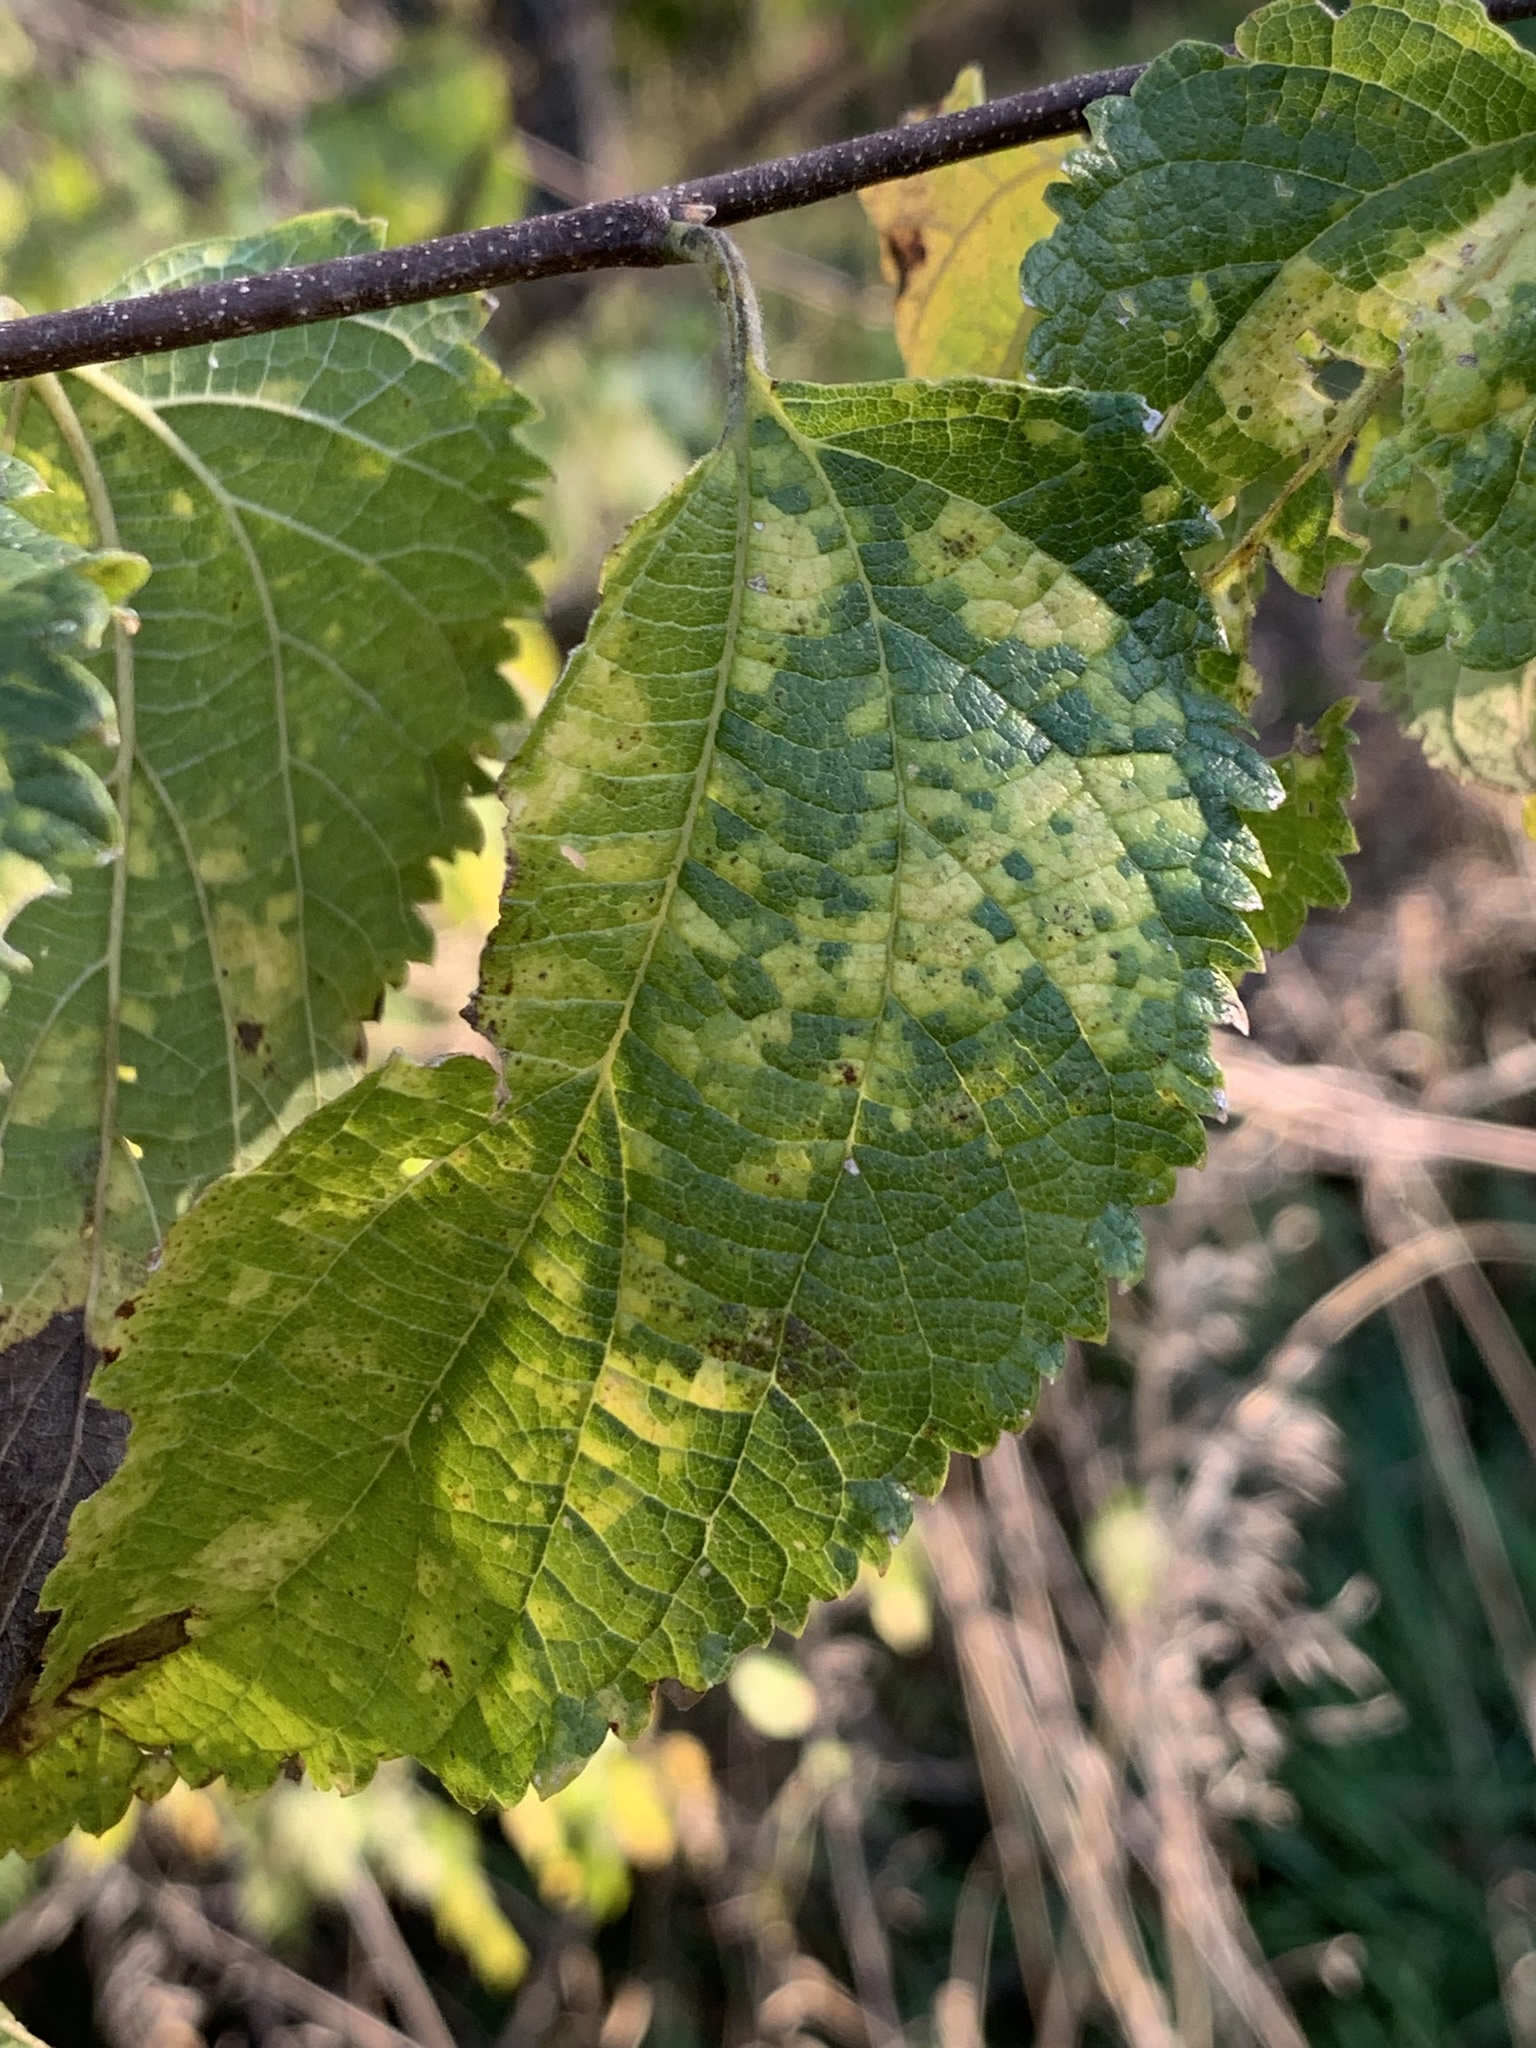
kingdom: Viruses
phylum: Kitrinoviricota
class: Alsuviricetes
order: Martellivirales
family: Closteroviridae
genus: Ampelovirus
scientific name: Ampelovirus
